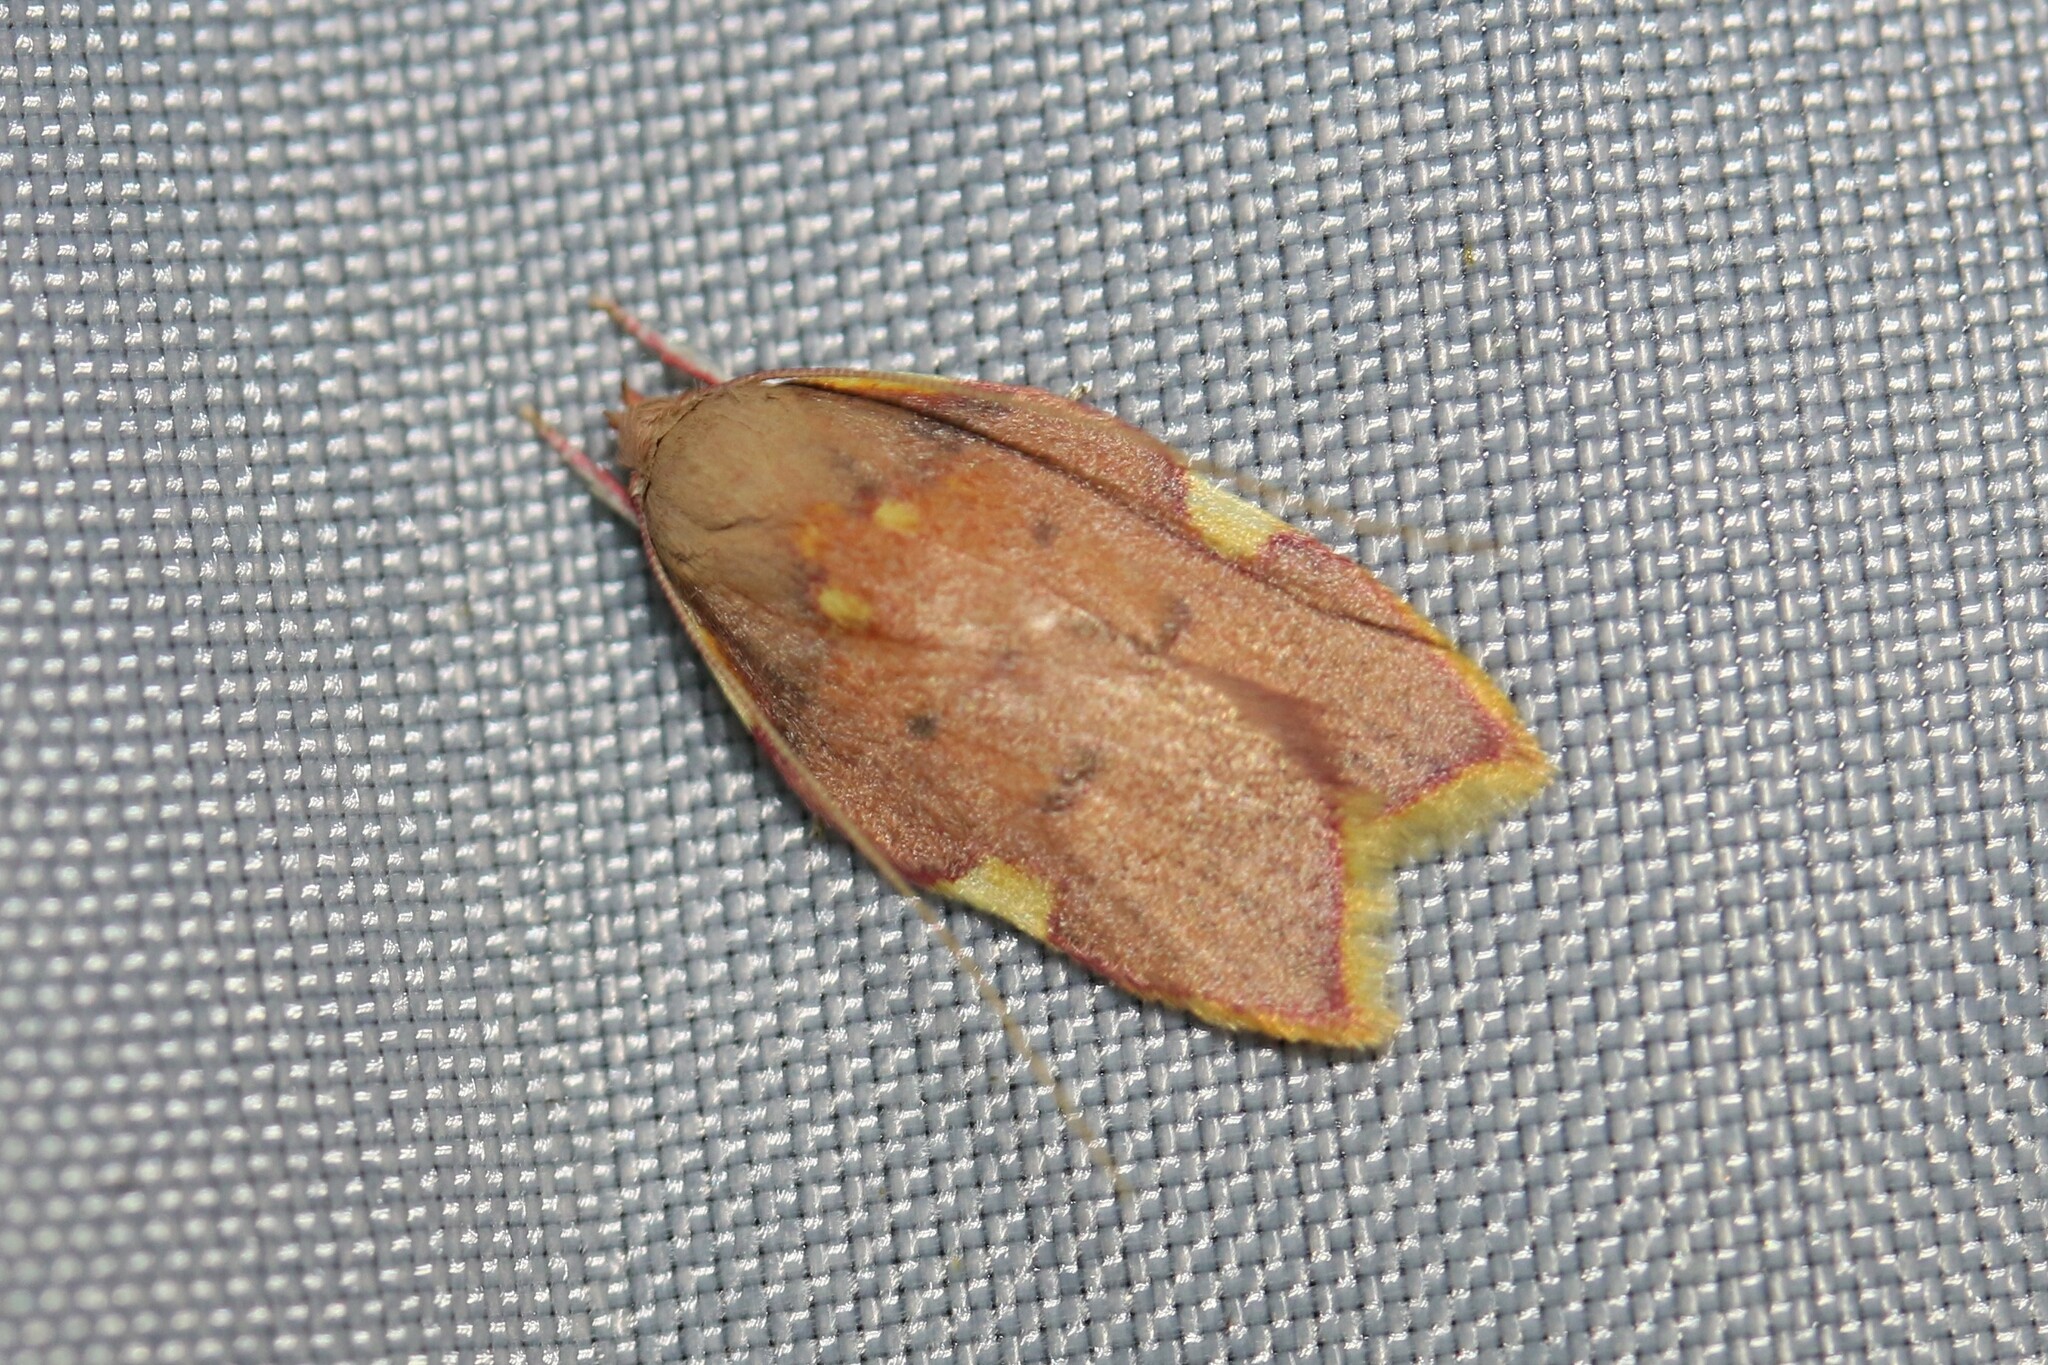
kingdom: Animalia
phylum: Arthropoda
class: Insecta
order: Lepidoptera
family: Peleopodidae
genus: Carcina
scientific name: Carcina quercana
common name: Moth
